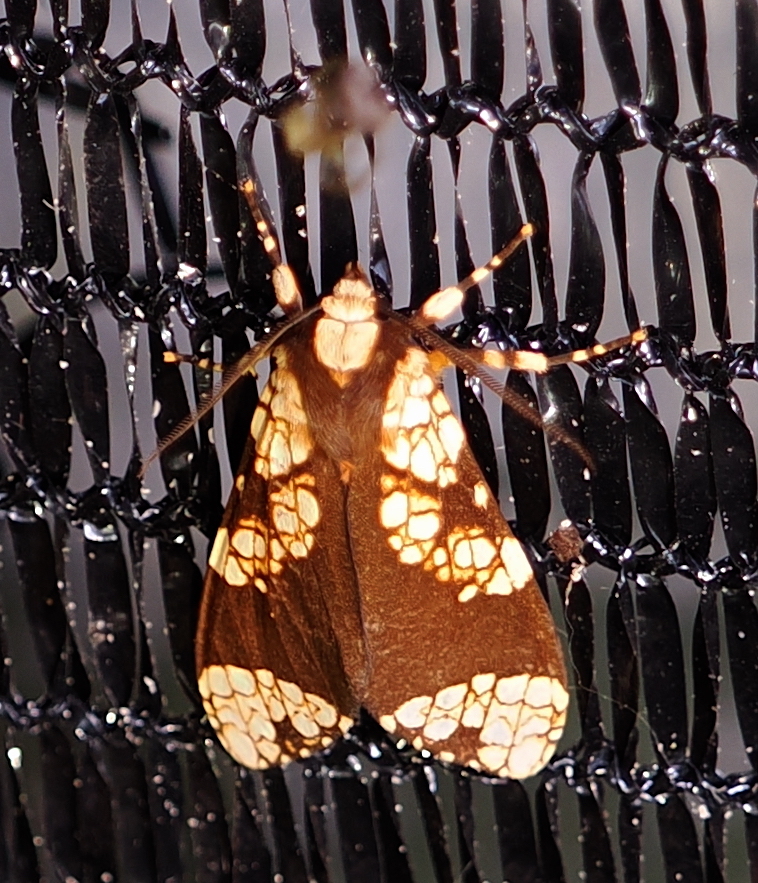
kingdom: Animalia
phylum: Arthropoda
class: Insecta
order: Lepidoptera
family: Erebidae
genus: Aemilia
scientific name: Aemilia affinis
